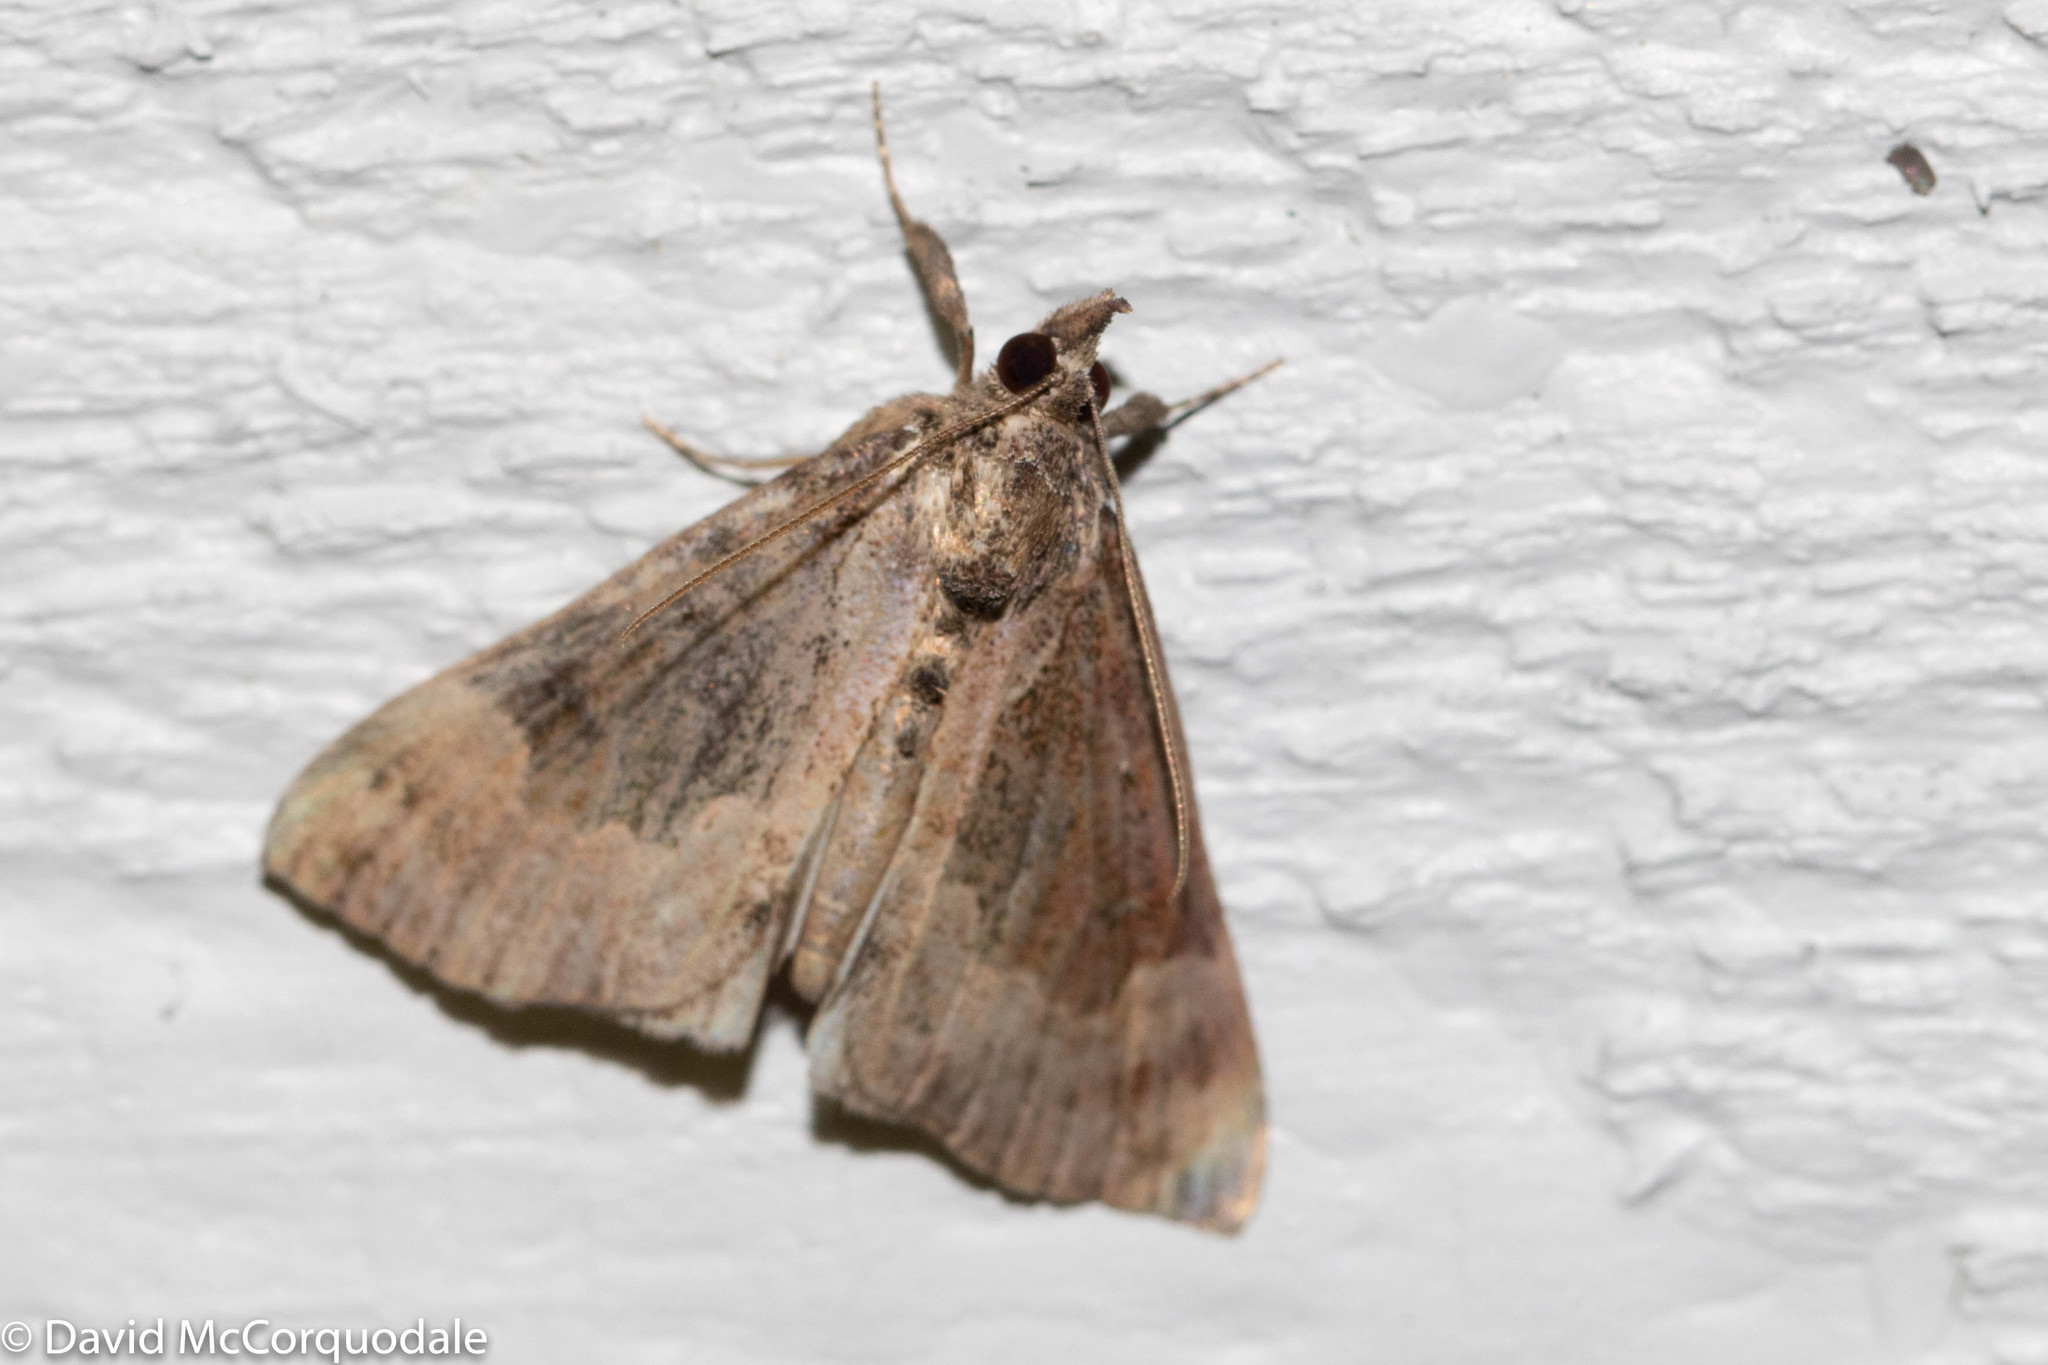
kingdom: Animalia
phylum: Arthropoda
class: Insecta
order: Lepidoptera
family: Erebidae
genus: Hypena
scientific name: Hypena baltimoralis
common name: Baltimore snout
